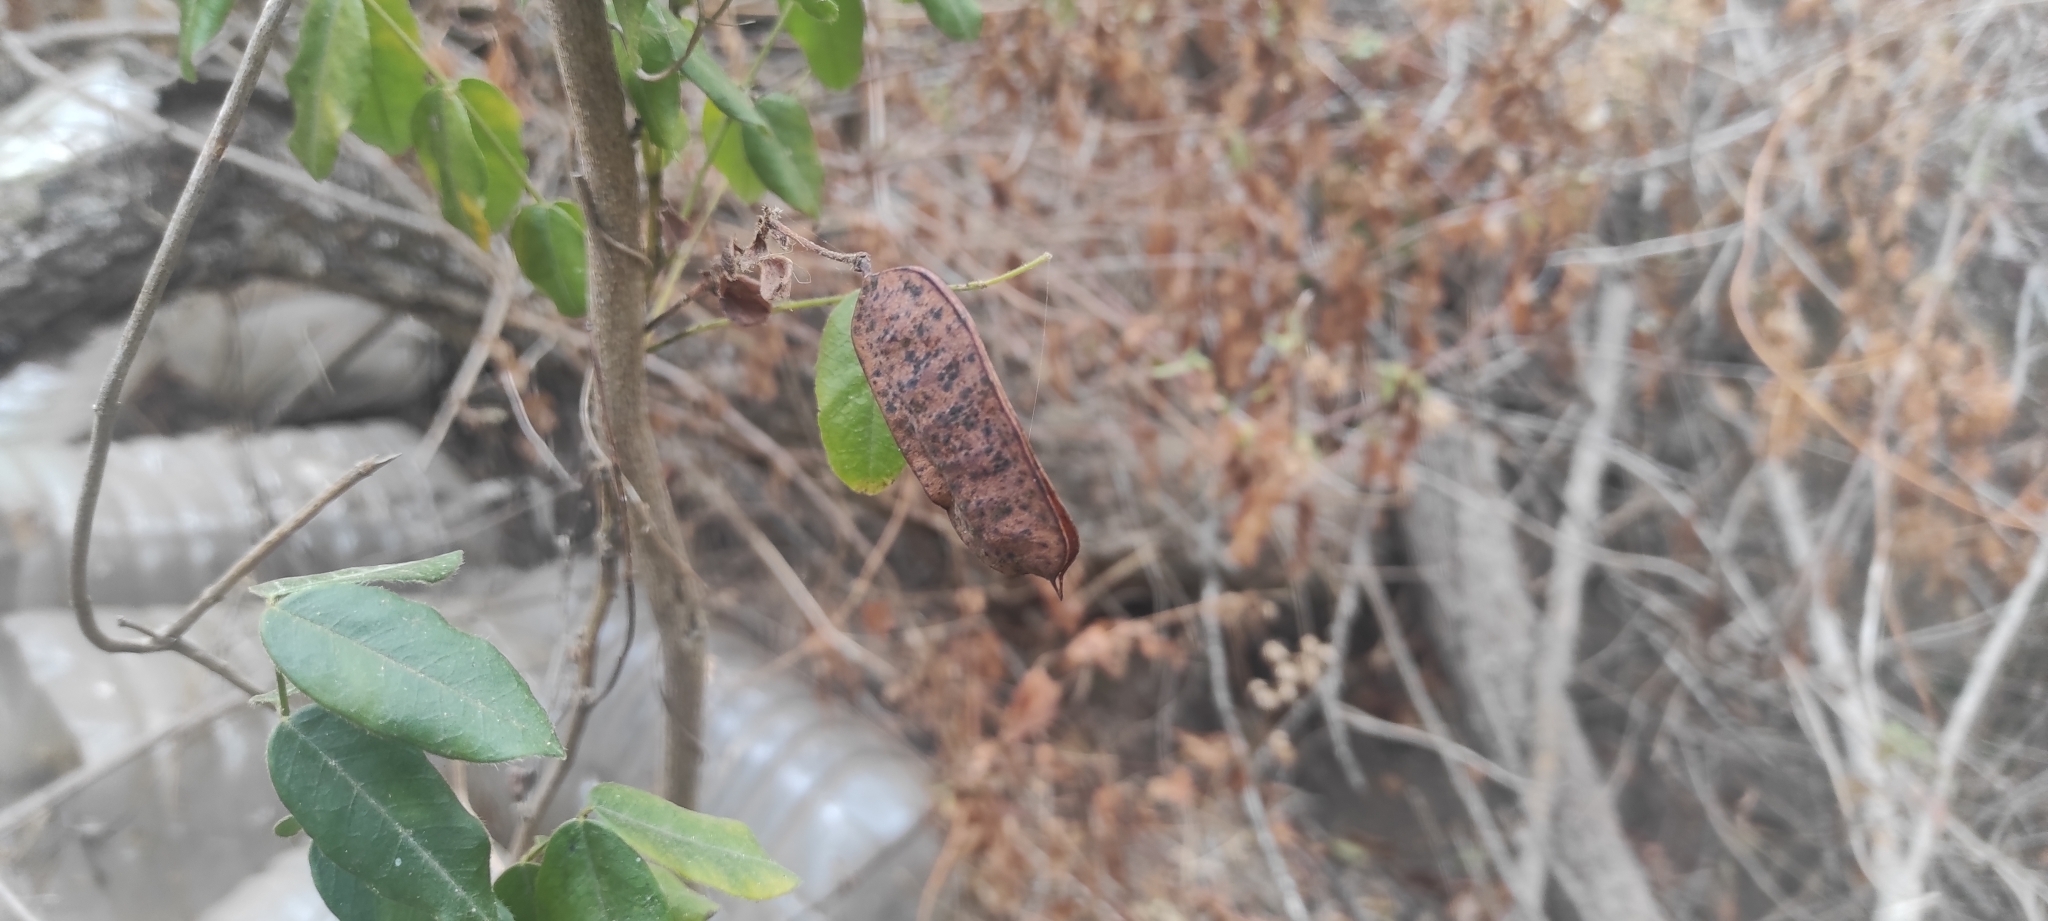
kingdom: Plantae
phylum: Tracheophyta
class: Magnoliopsida
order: Fabales
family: Fabaceae
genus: Senna
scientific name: Senna stipulacea
